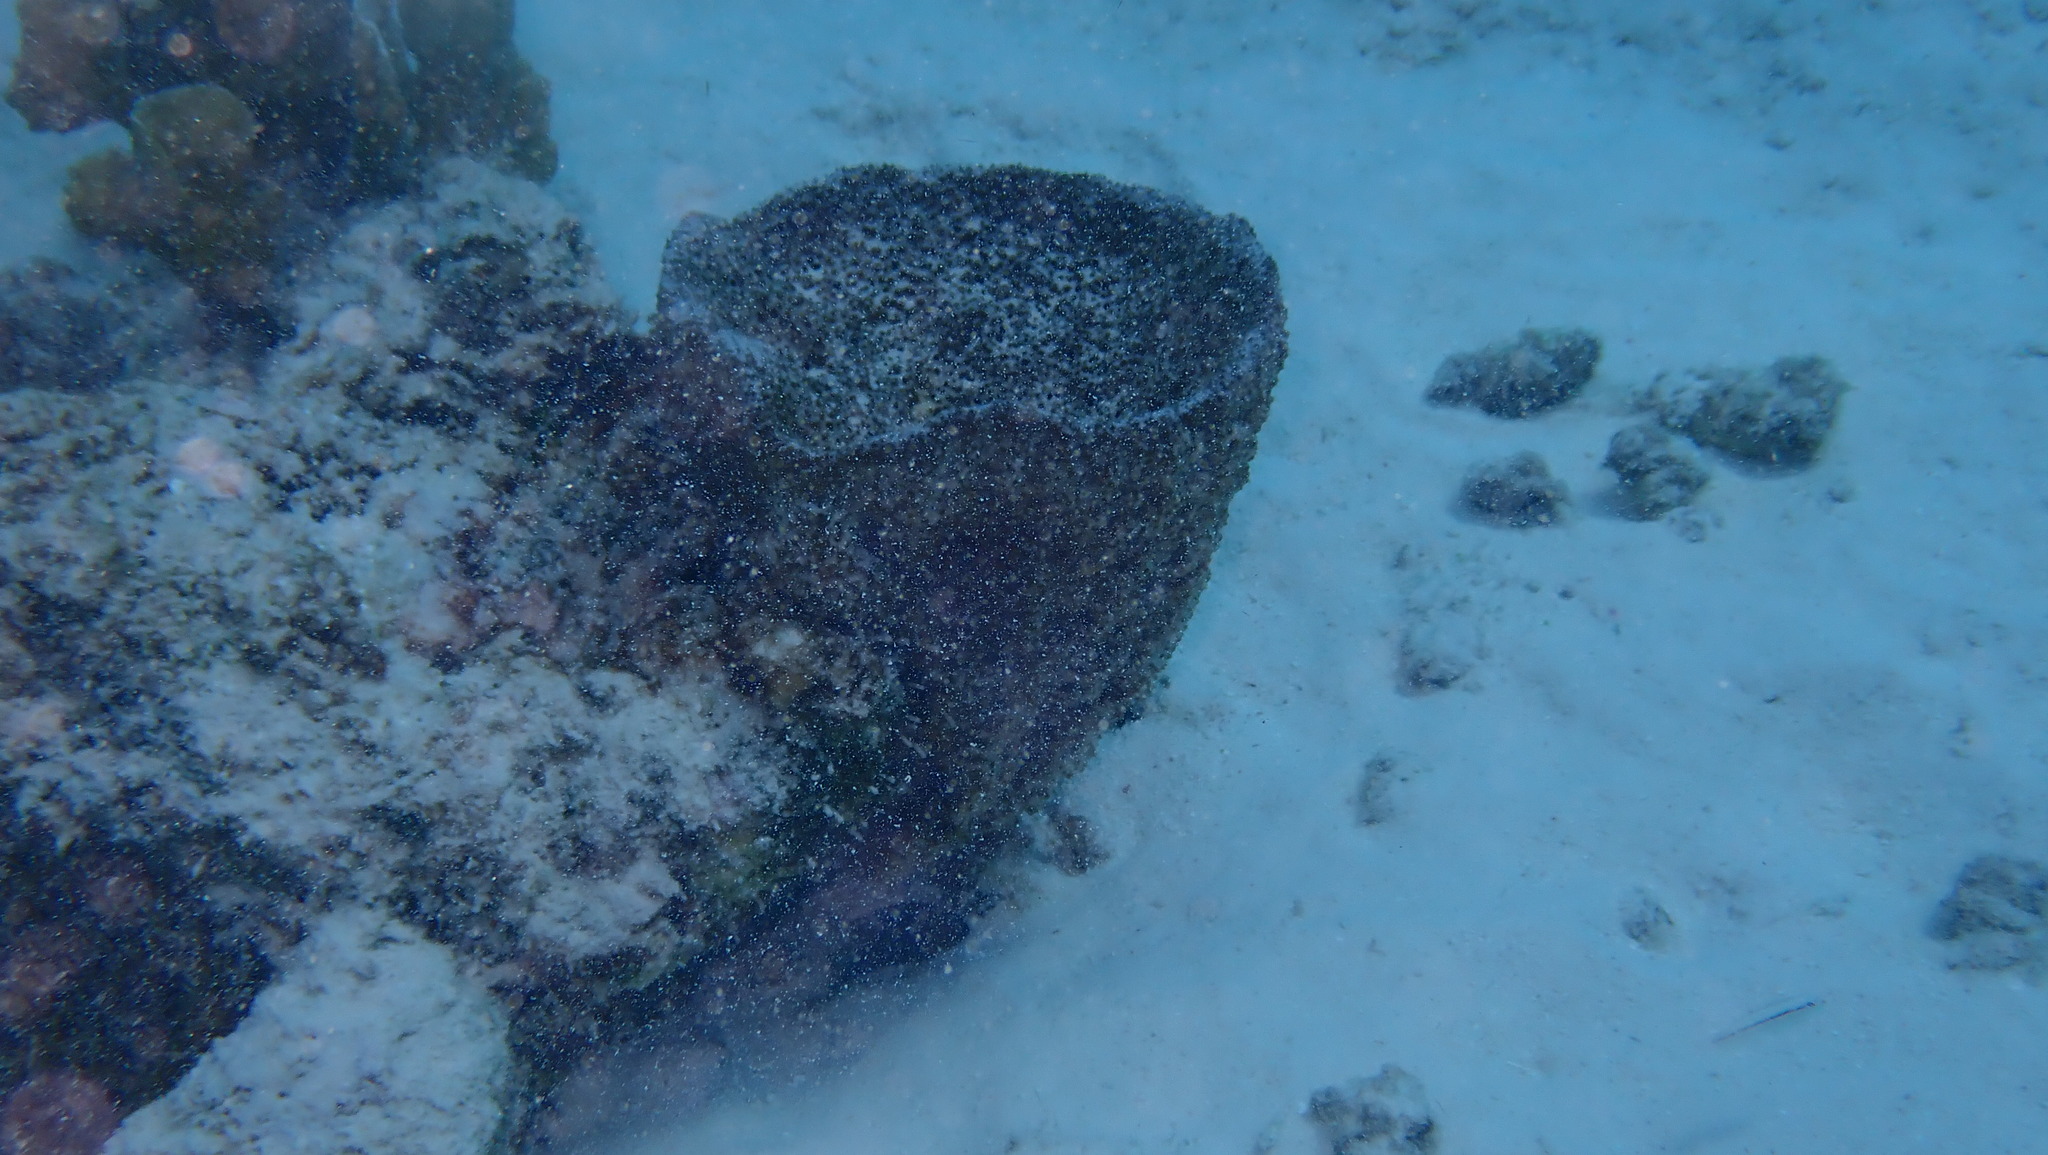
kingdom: Animalia
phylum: Porifera
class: Demospongiae
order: Dictyoceratida
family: Irciniidae
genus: Ircinia
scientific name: Ircinia campana
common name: Vase sponge
